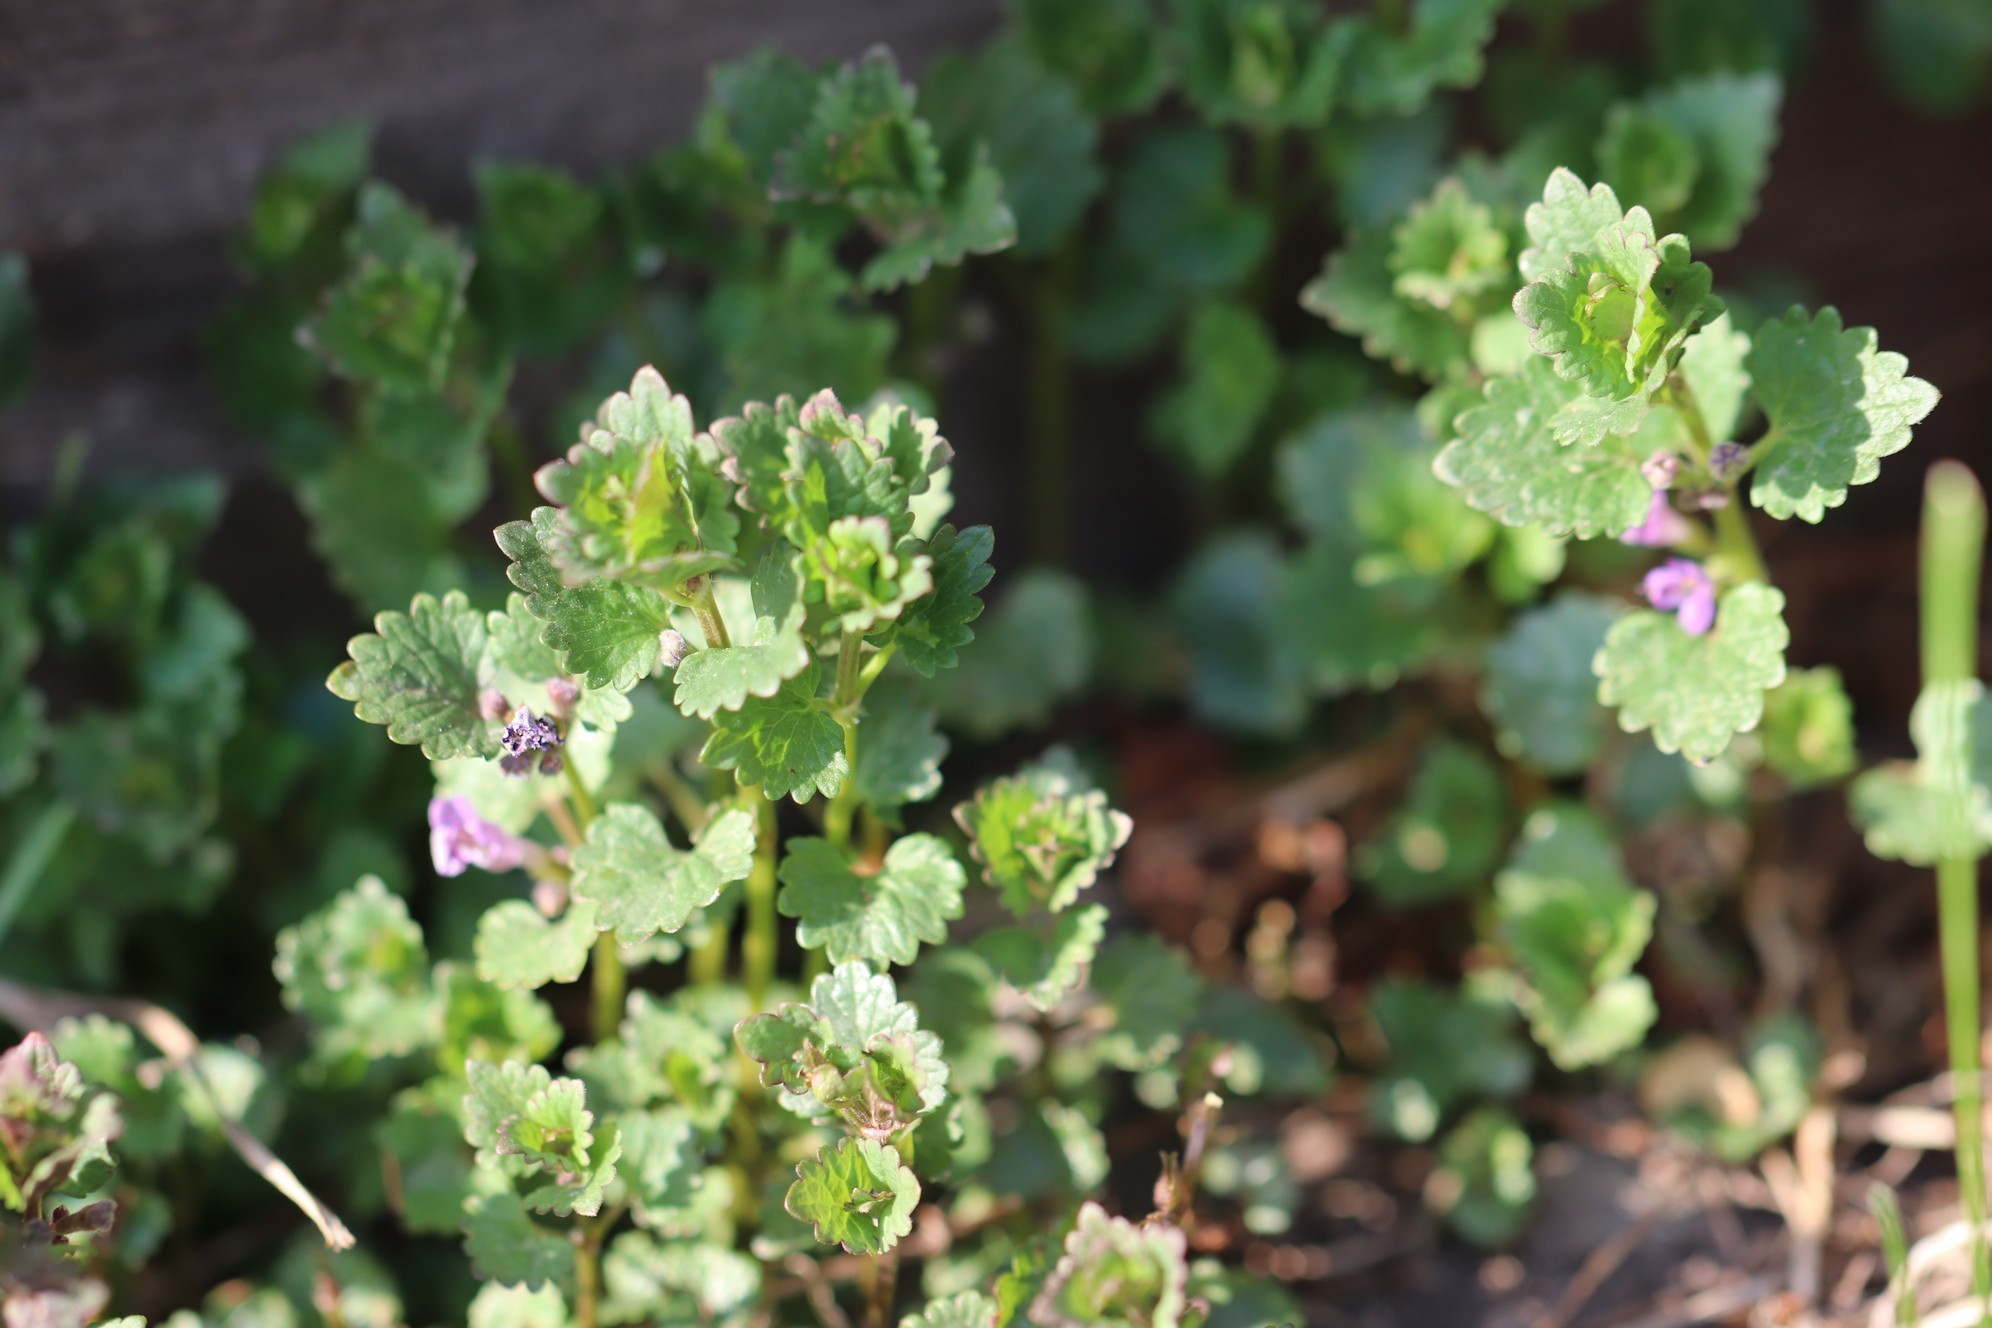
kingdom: Plantae
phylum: Tracheophyta
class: Magnoliopsida
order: Lamiales
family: Lamiaceae
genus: Glechoma
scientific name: Glechoma hederacea
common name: Ground ivy
